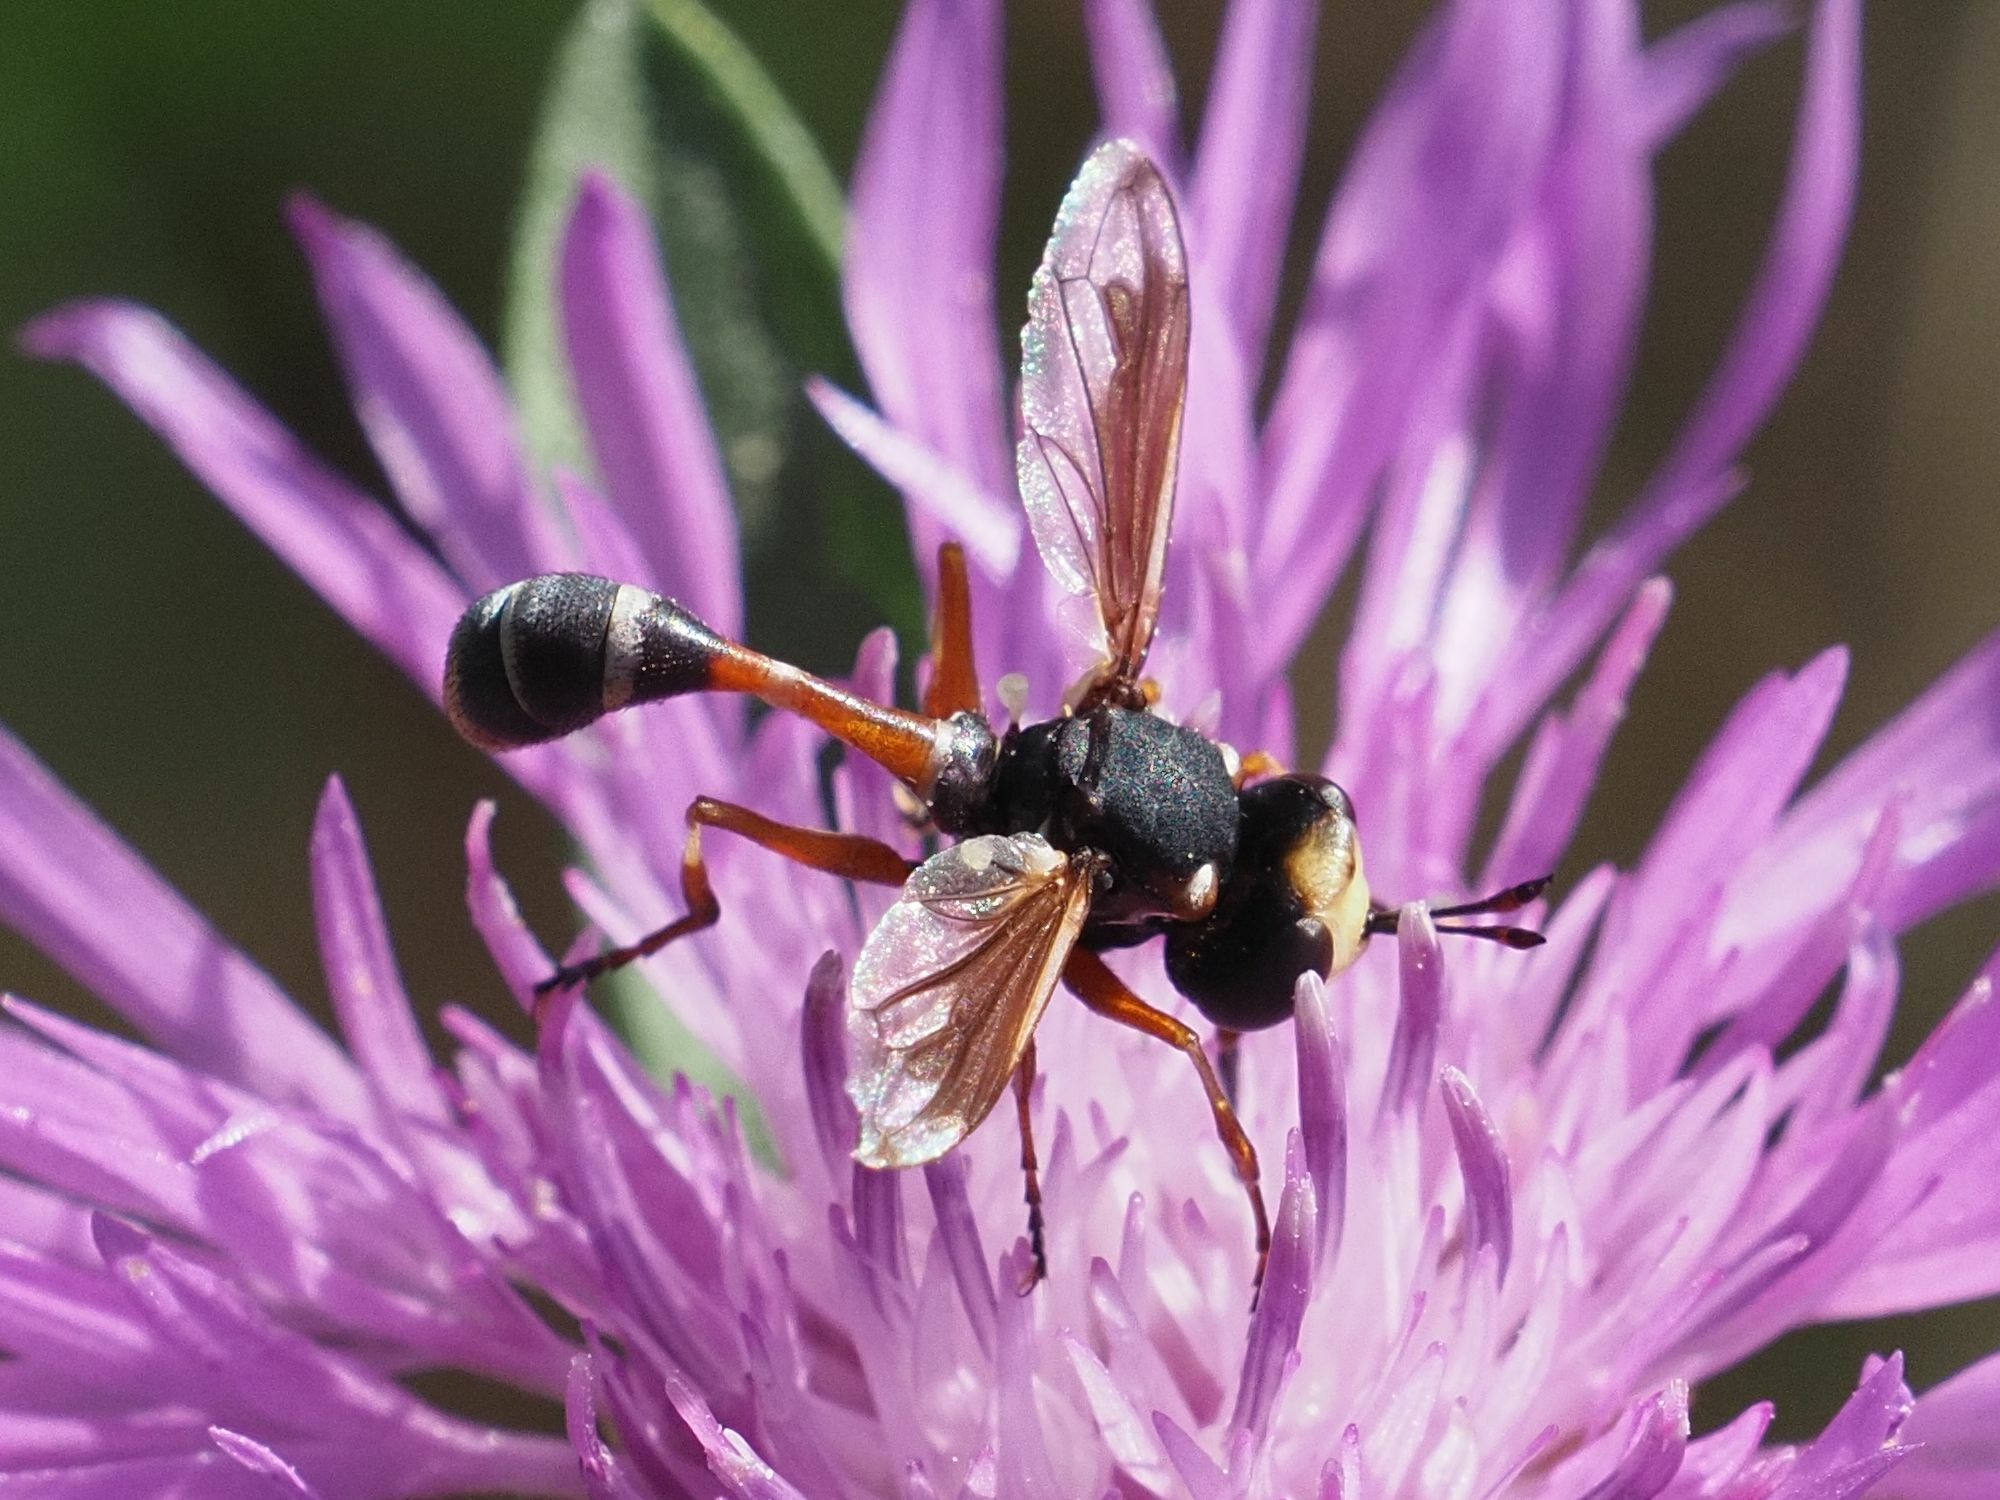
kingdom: Animalia
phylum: Arthropoda
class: Insecta
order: Diptera
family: Conopidae
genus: Physocephala
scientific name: Physocephala vittata
